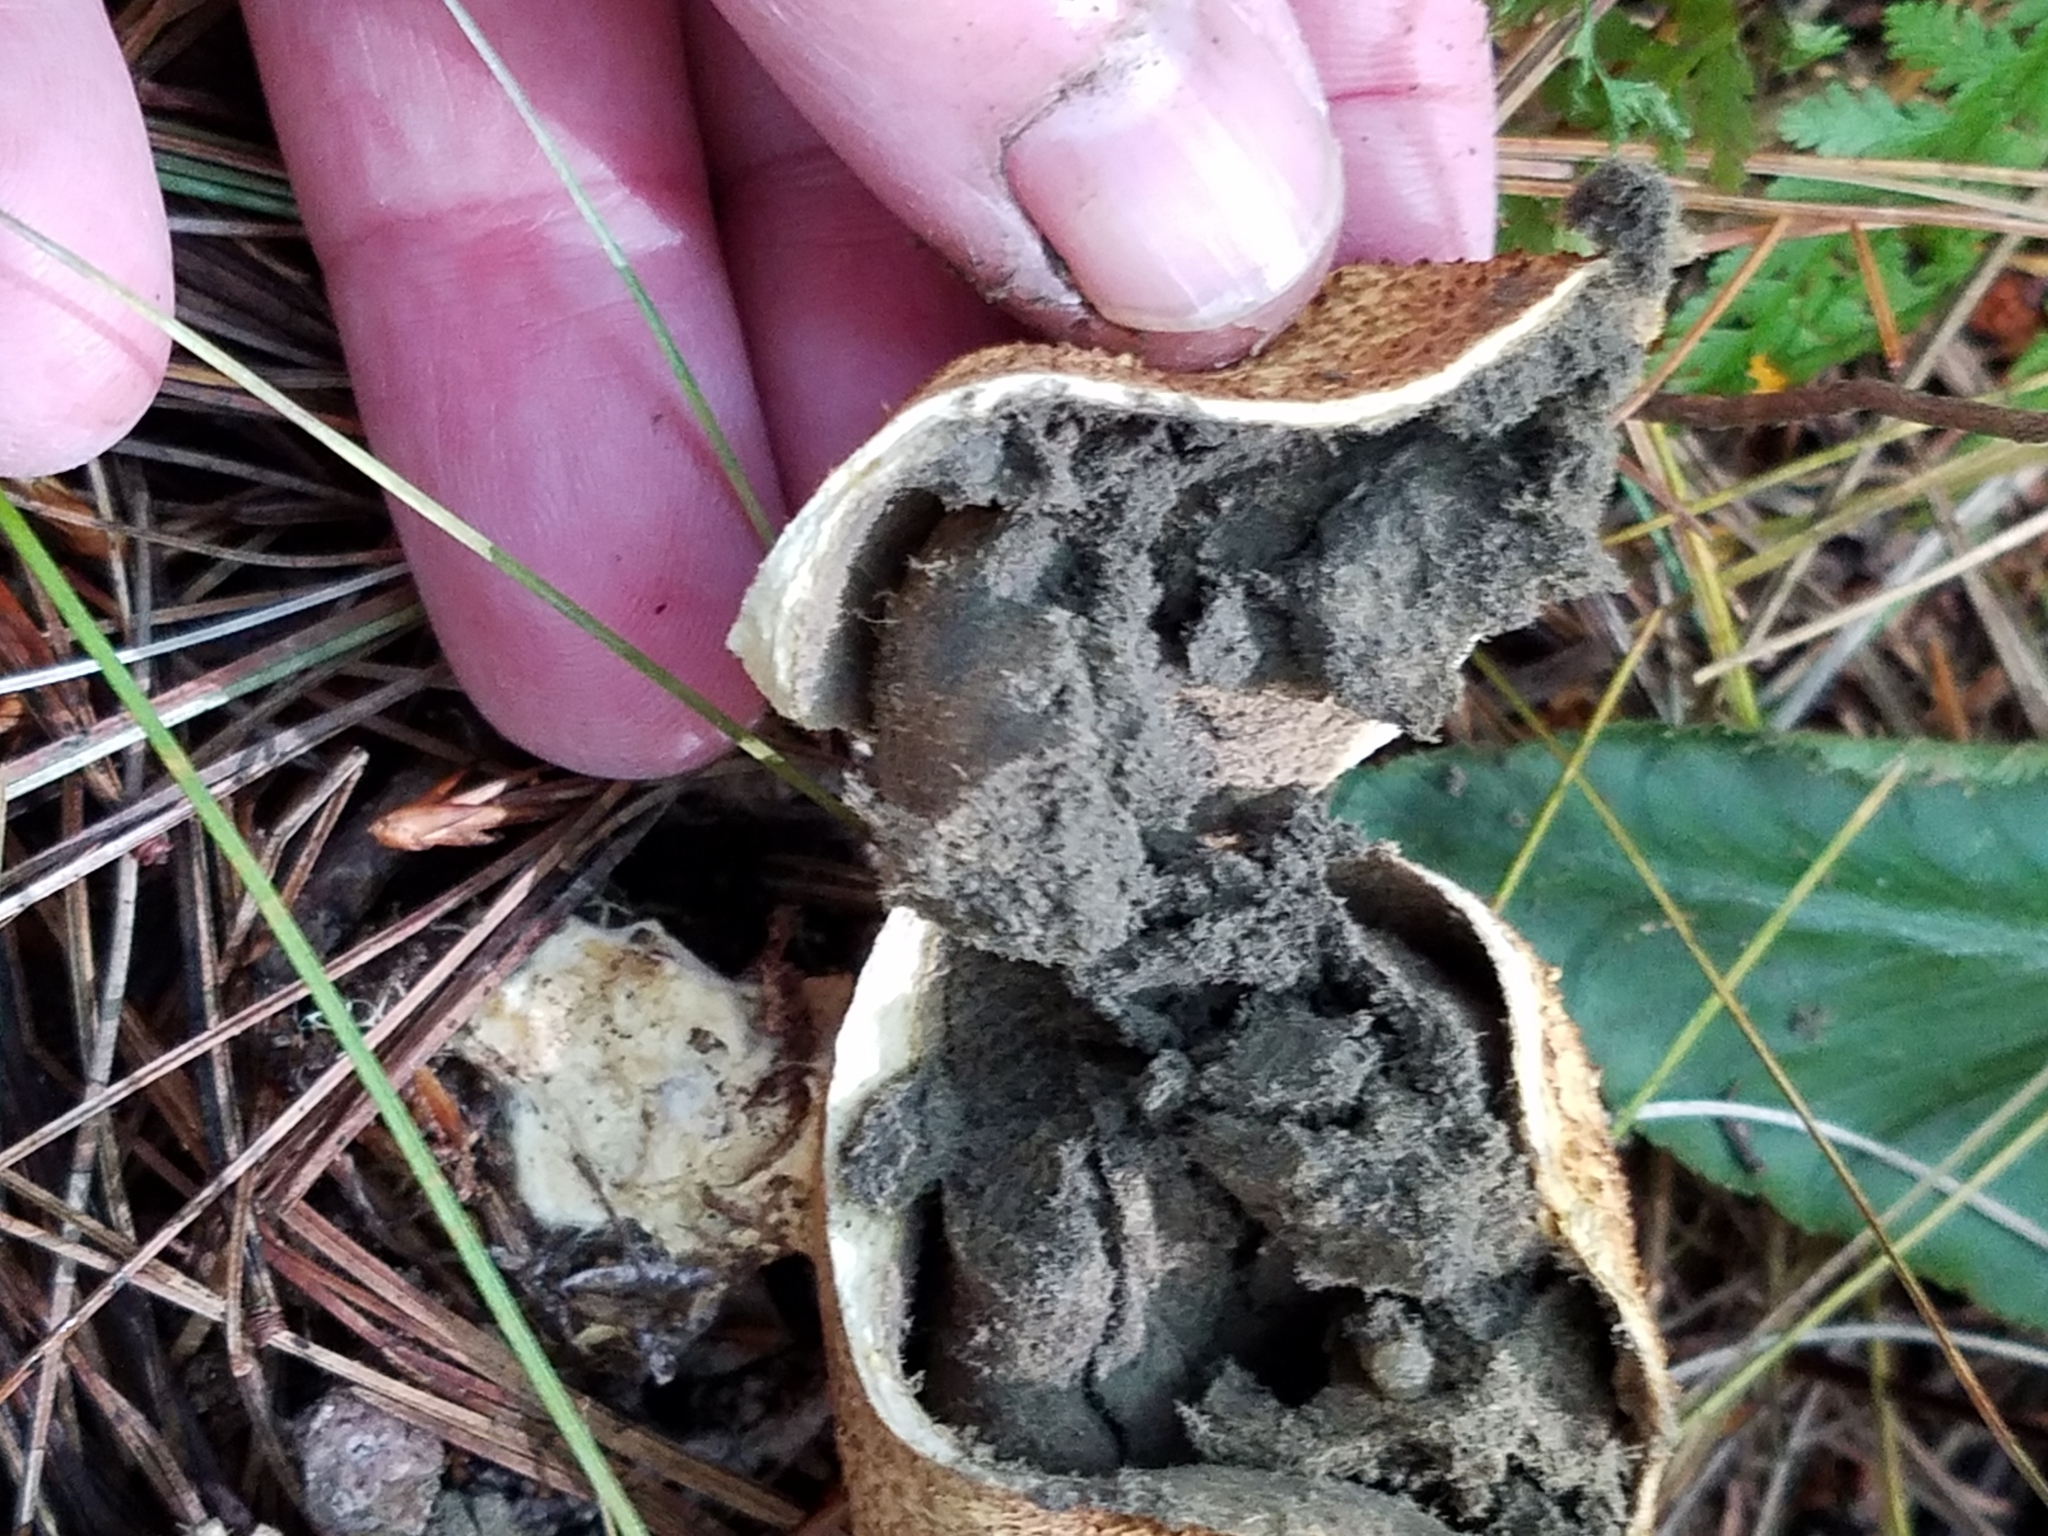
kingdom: Fungi
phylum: Basidiomycota
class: Agaricomycetes
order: Boletales
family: Sclerodermataceae
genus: Scleroderma
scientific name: Scleroderma citrinum
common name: Common earthball
